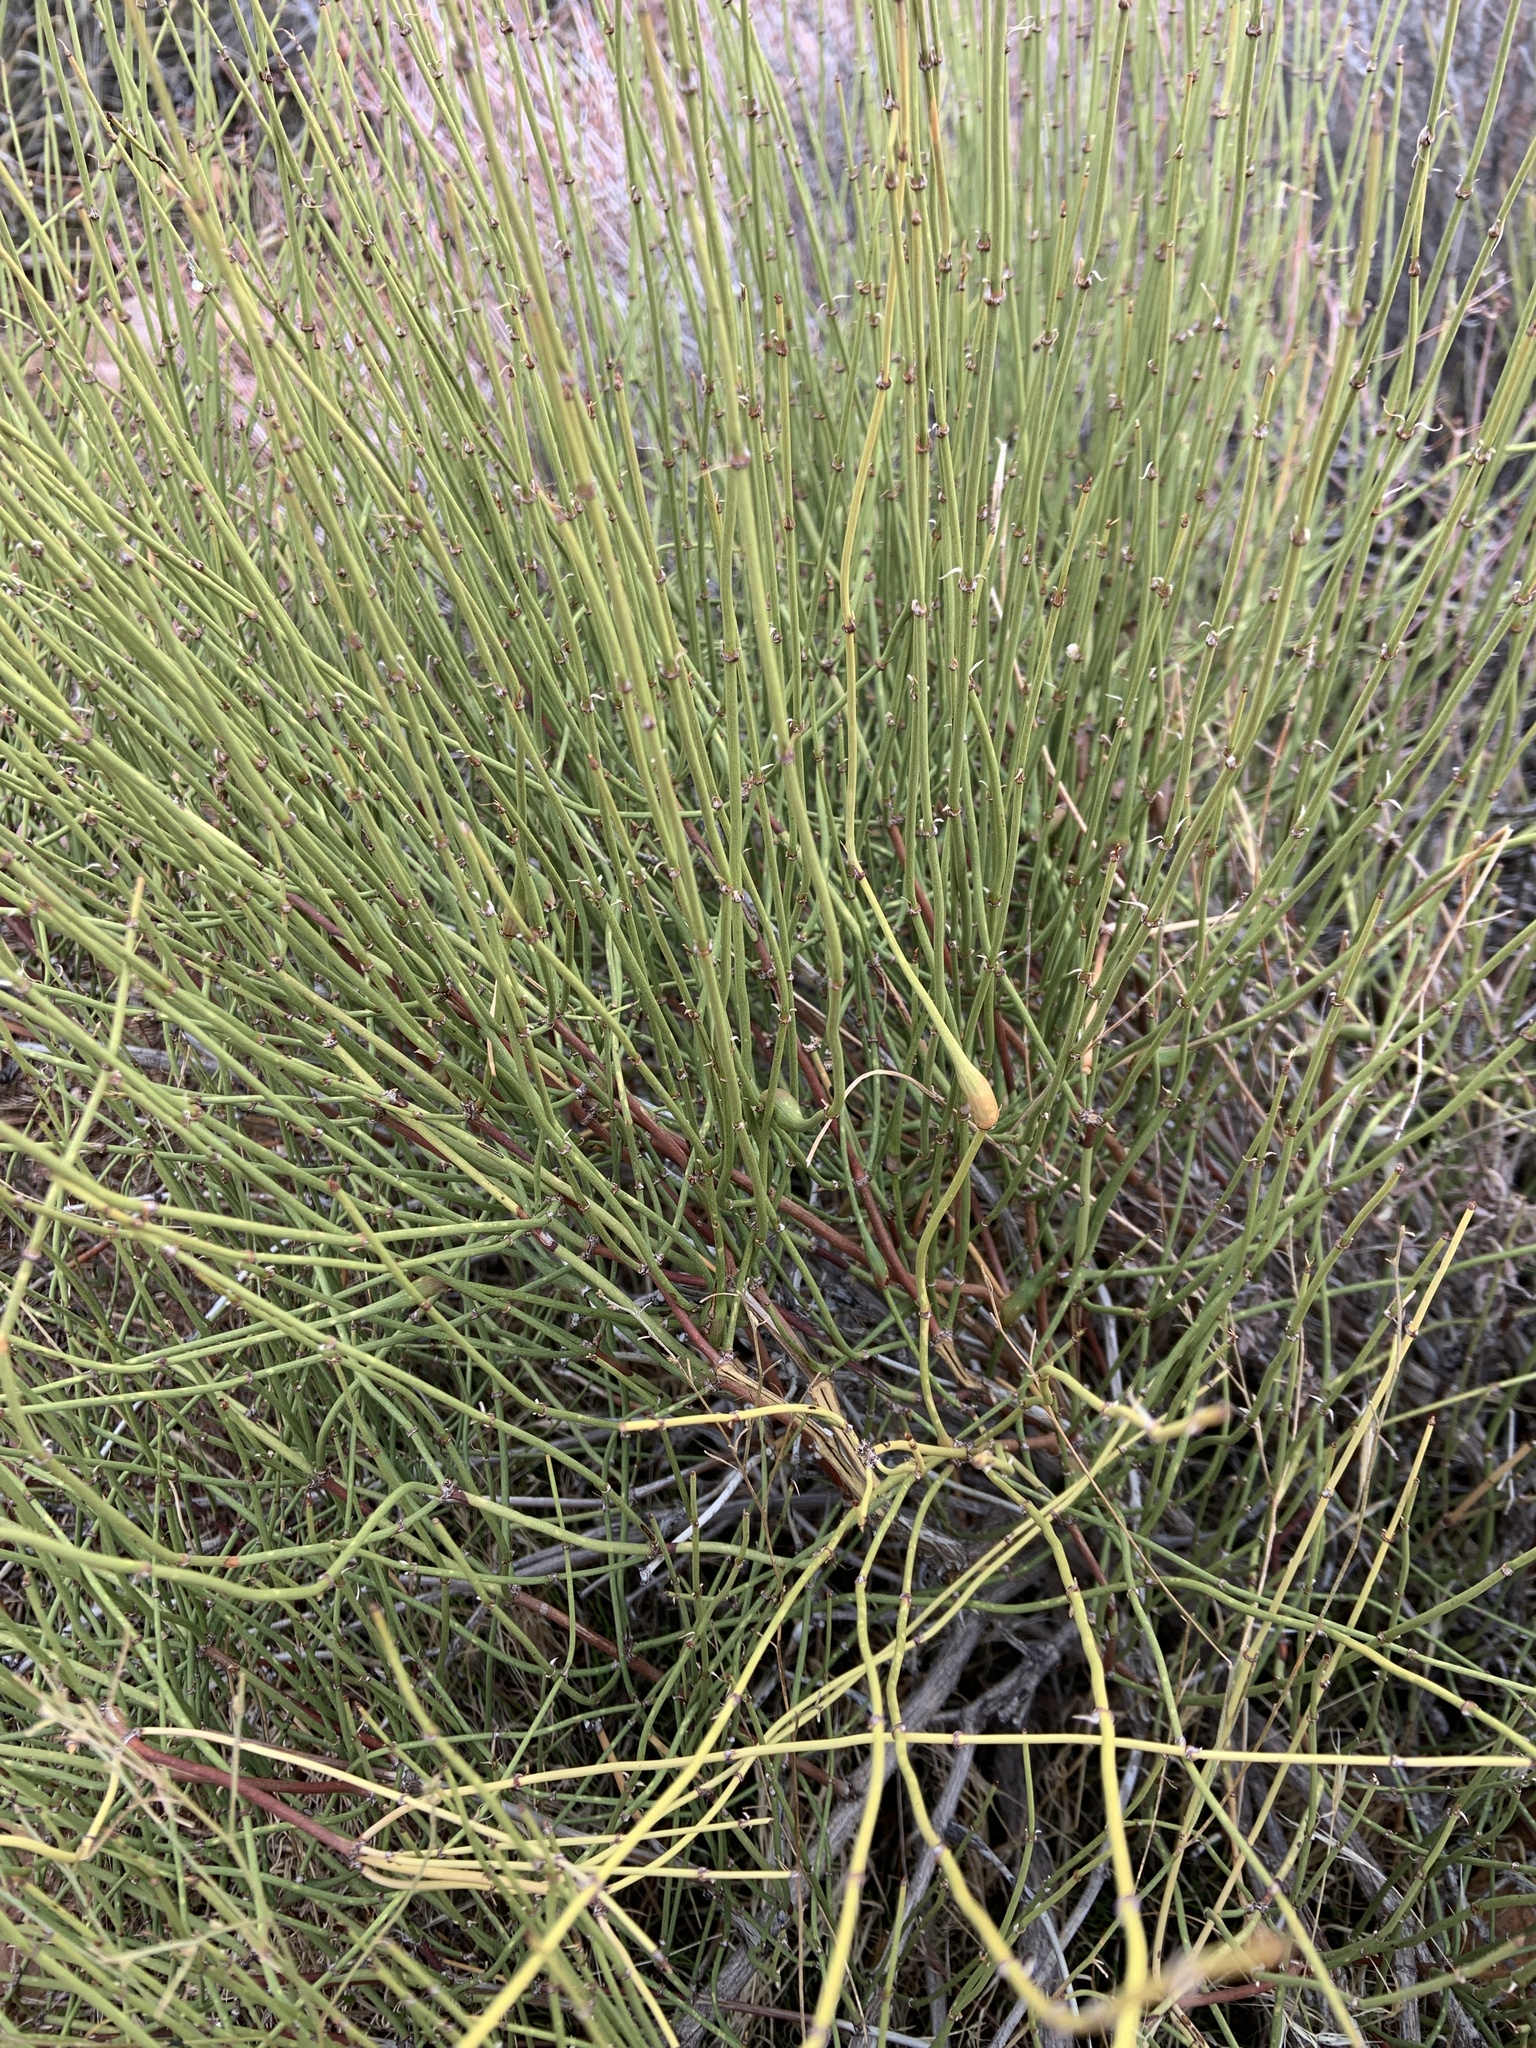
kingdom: Plantae
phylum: Tracheophyta
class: Gnetopsida
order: Ephedrales
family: Ephedraceae
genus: Ephedra
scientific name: Ephedra viridis
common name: Green ephedra
